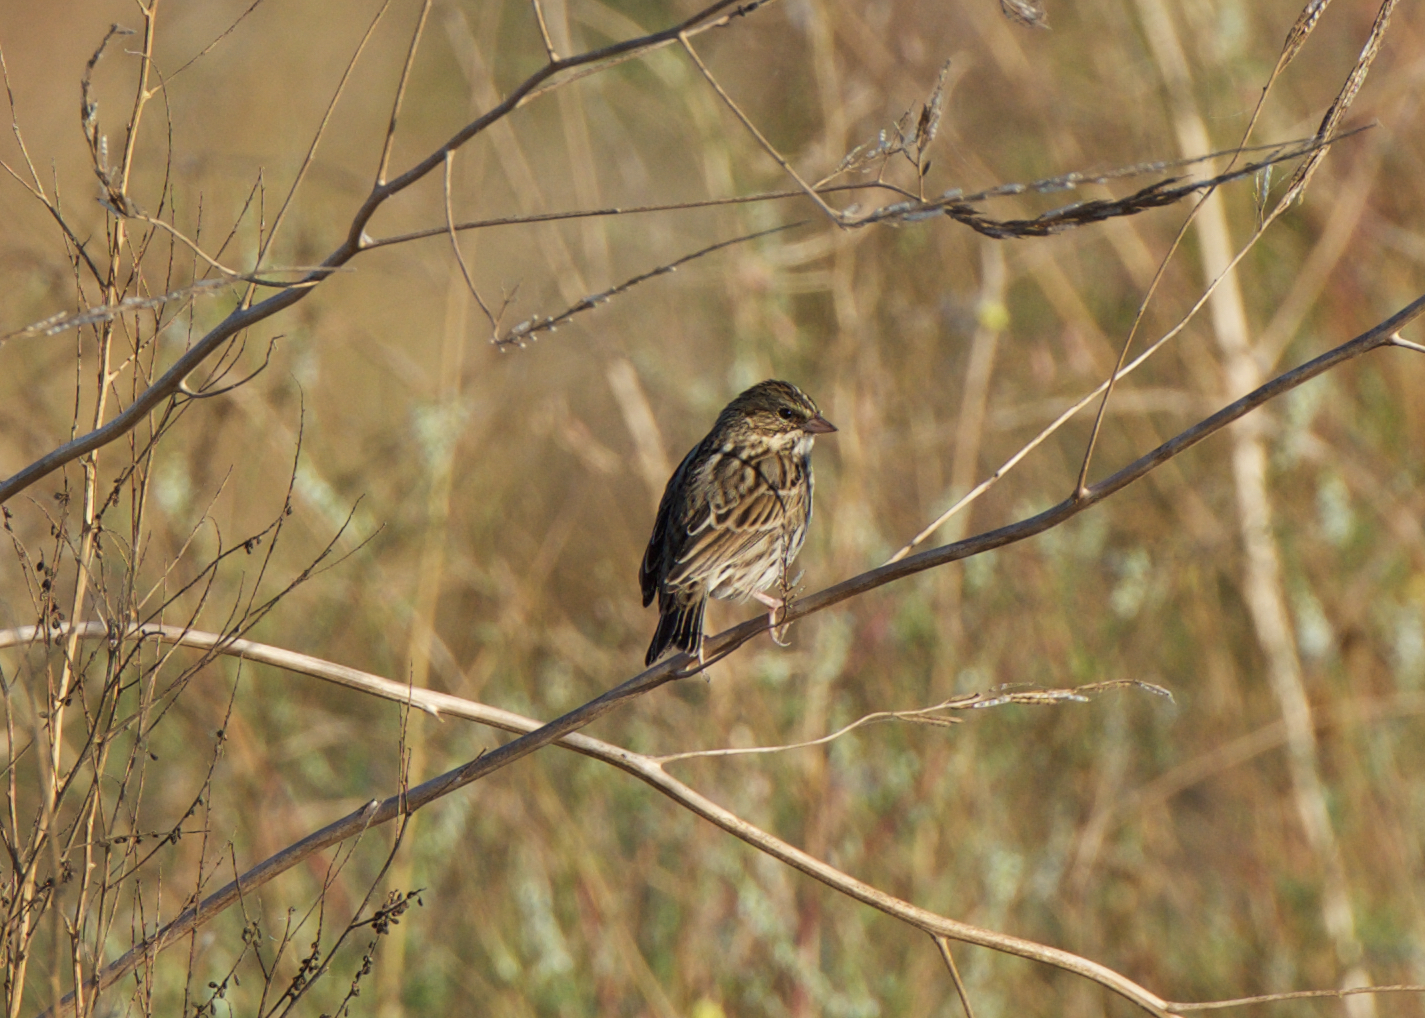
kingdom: Animalia
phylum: Chordata
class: Aves
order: Passeriformes
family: Passerellidae
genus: Passerculus
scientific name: Passerculus sandwichensis
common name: Savannah sparrow
